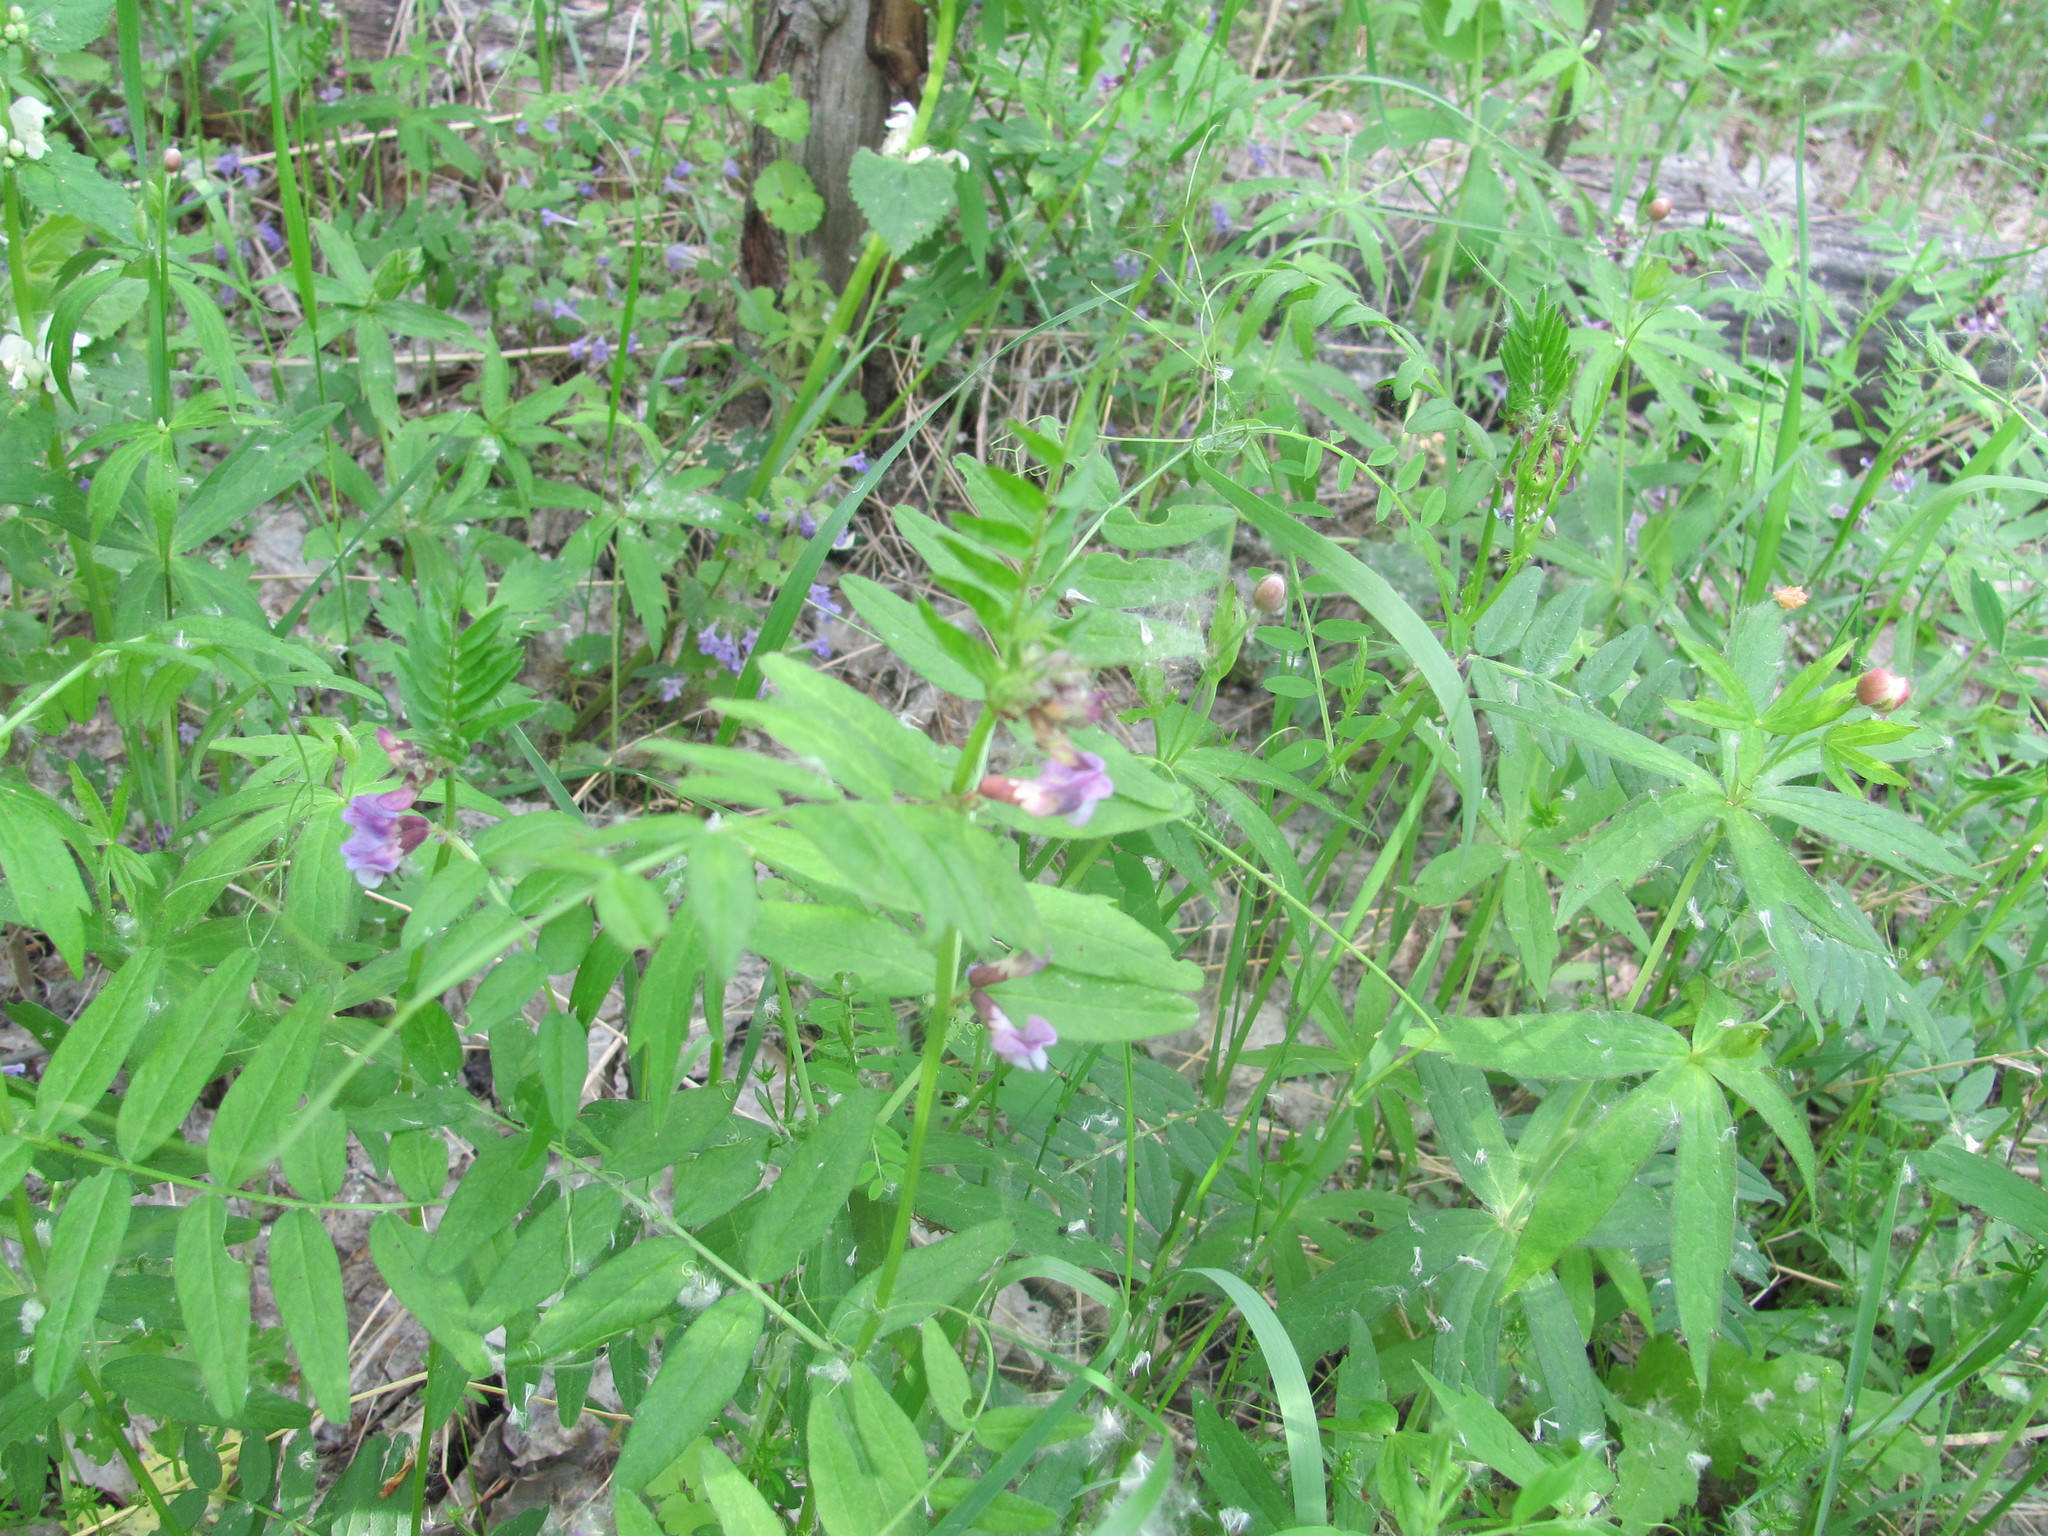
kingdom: Plantae
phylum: Tracheophyta
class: Magnoliopsida
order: Fabales
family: Fabaceae
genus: Vicia
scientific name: Vicia sepium
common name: Bush vetch
